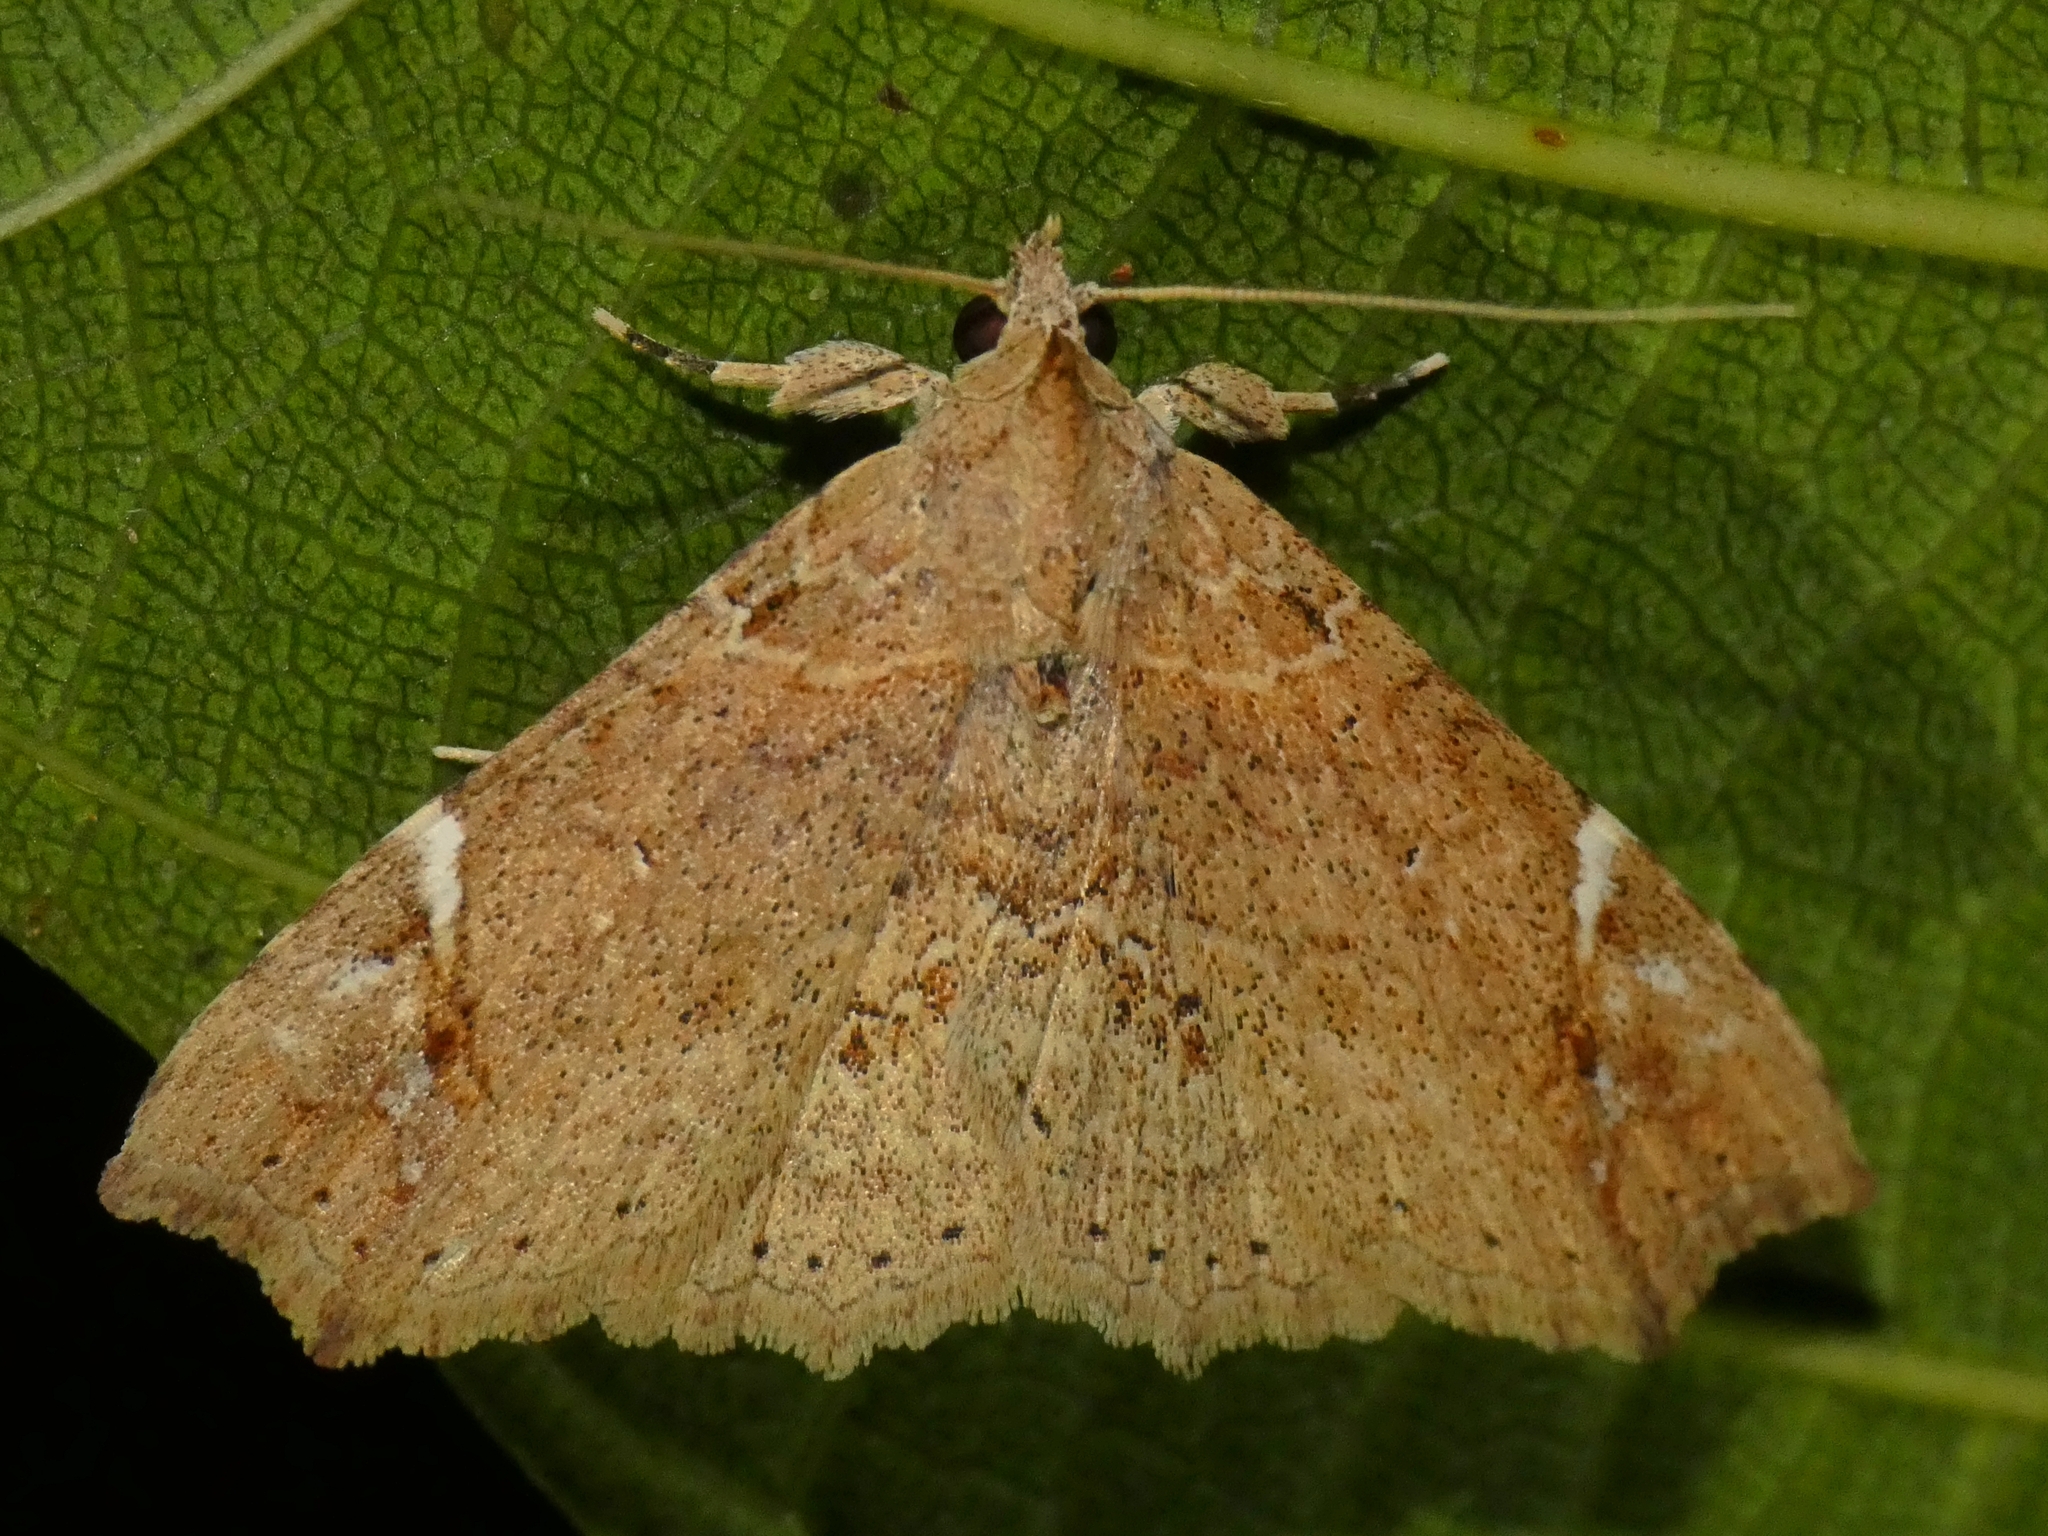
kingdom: Animalia
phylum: Arthropoda
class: Insecta
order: Lepidoptera
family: Erebidae
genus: Tamba
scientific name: Tamba elachista
